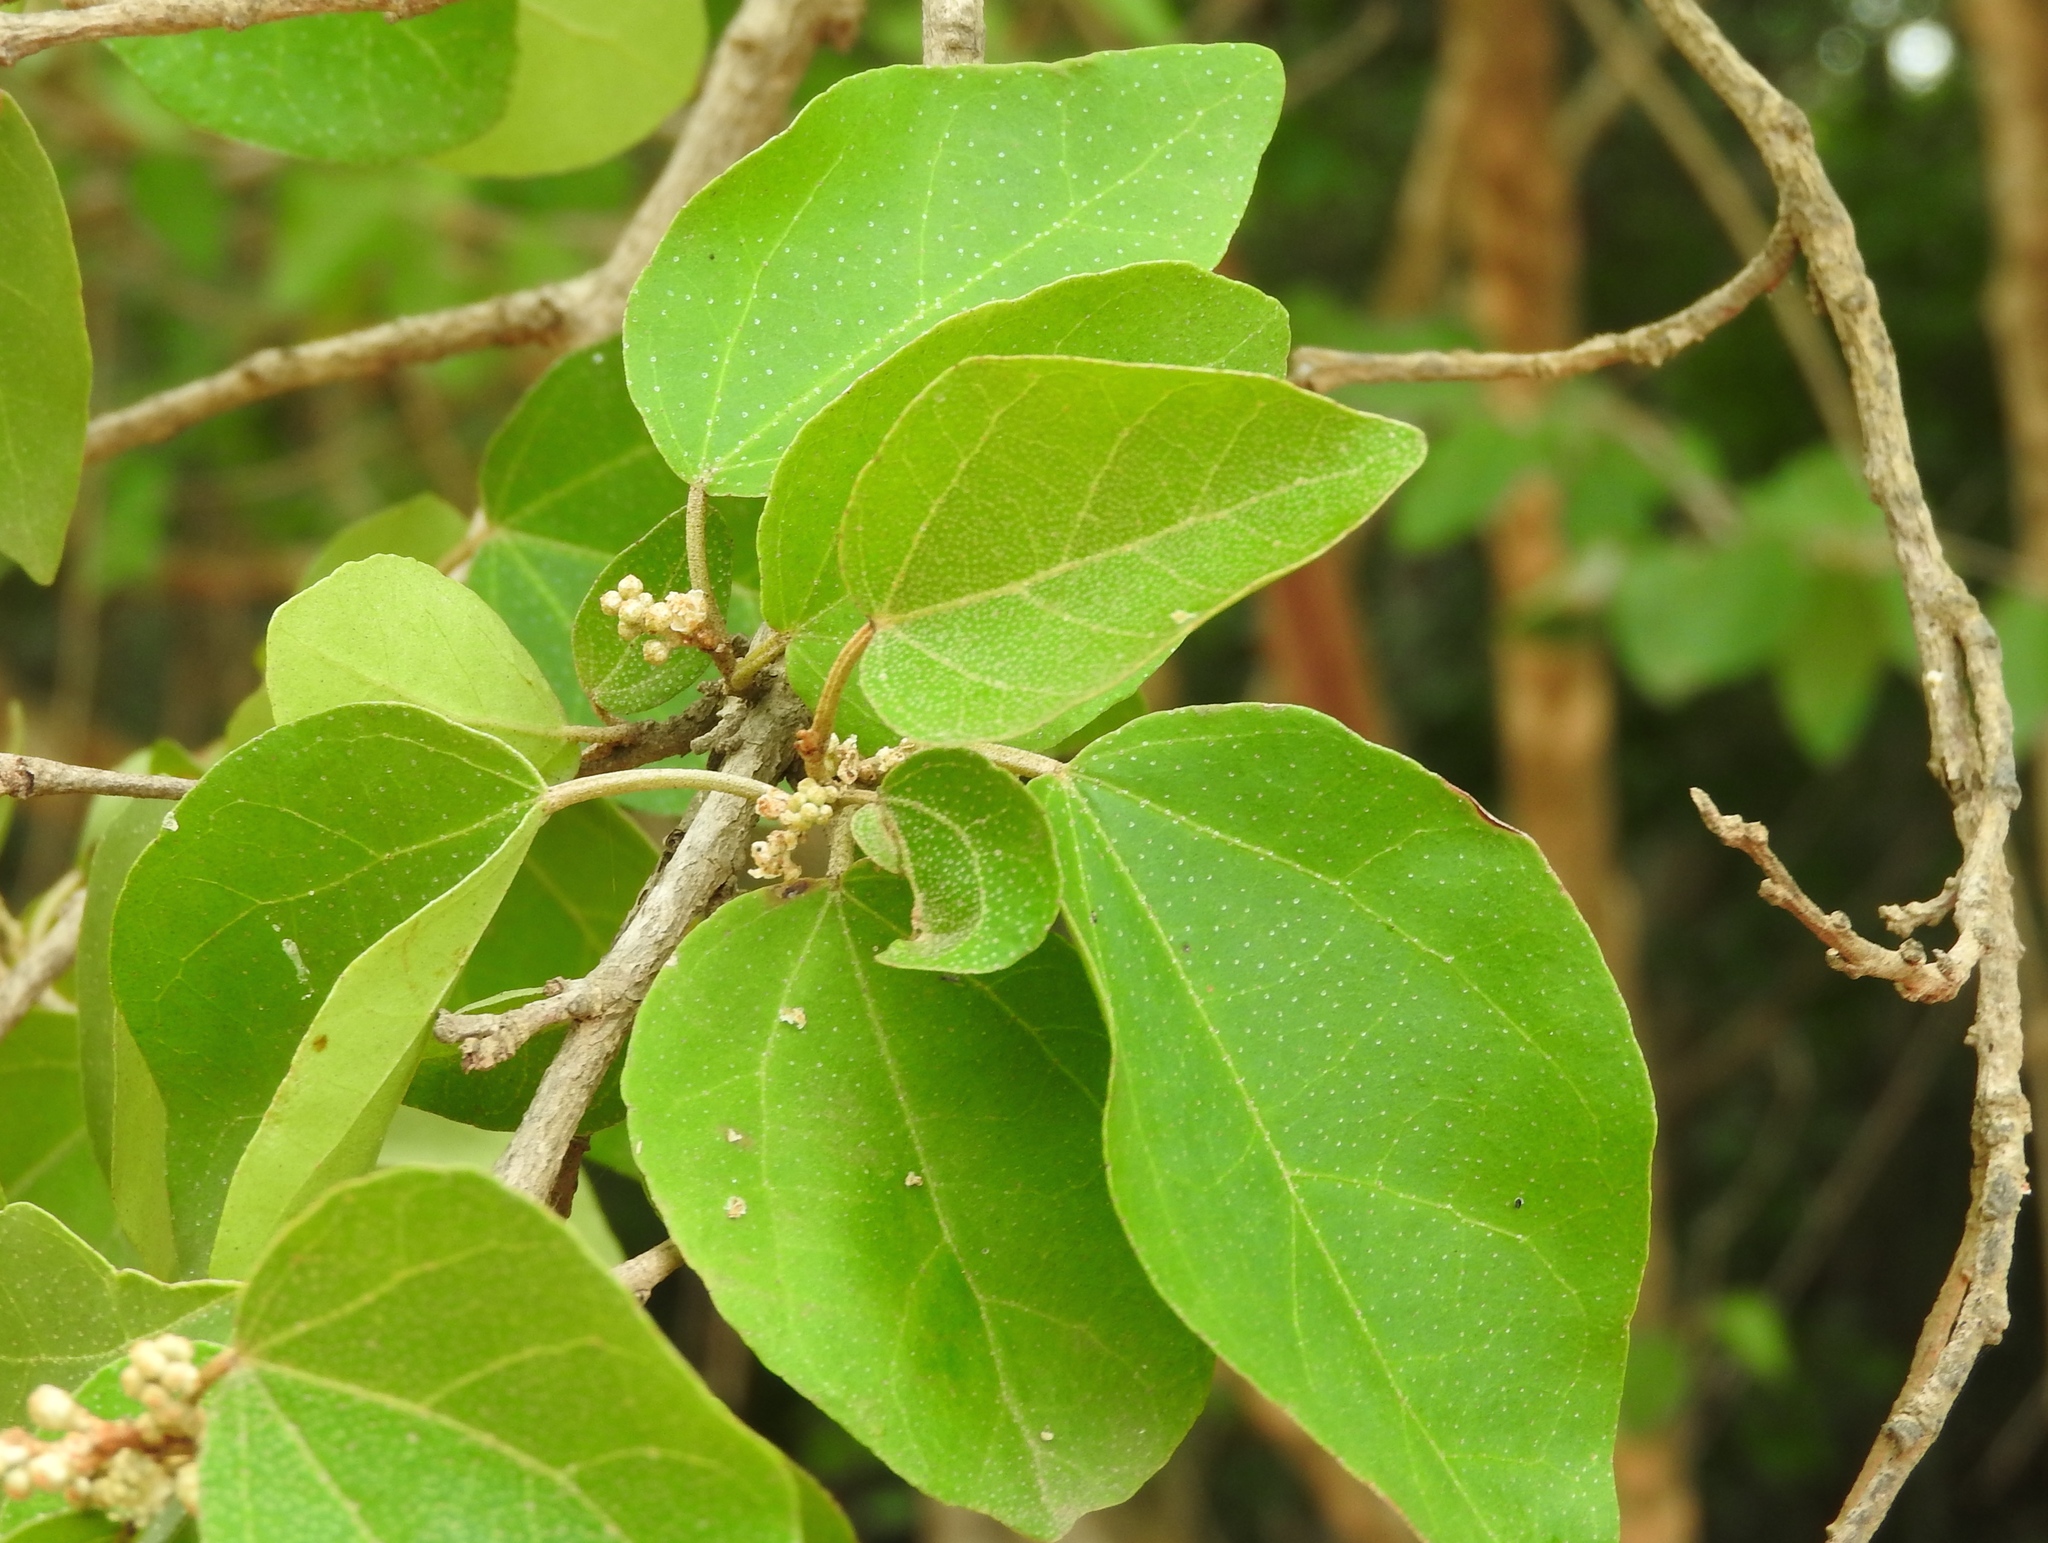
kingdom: Plantae
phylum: Tracheophyta
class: Magnoliopsida
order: Malpighiales
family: Euphorbiaceae
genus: Croton
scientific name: Croton pseudoniveus
